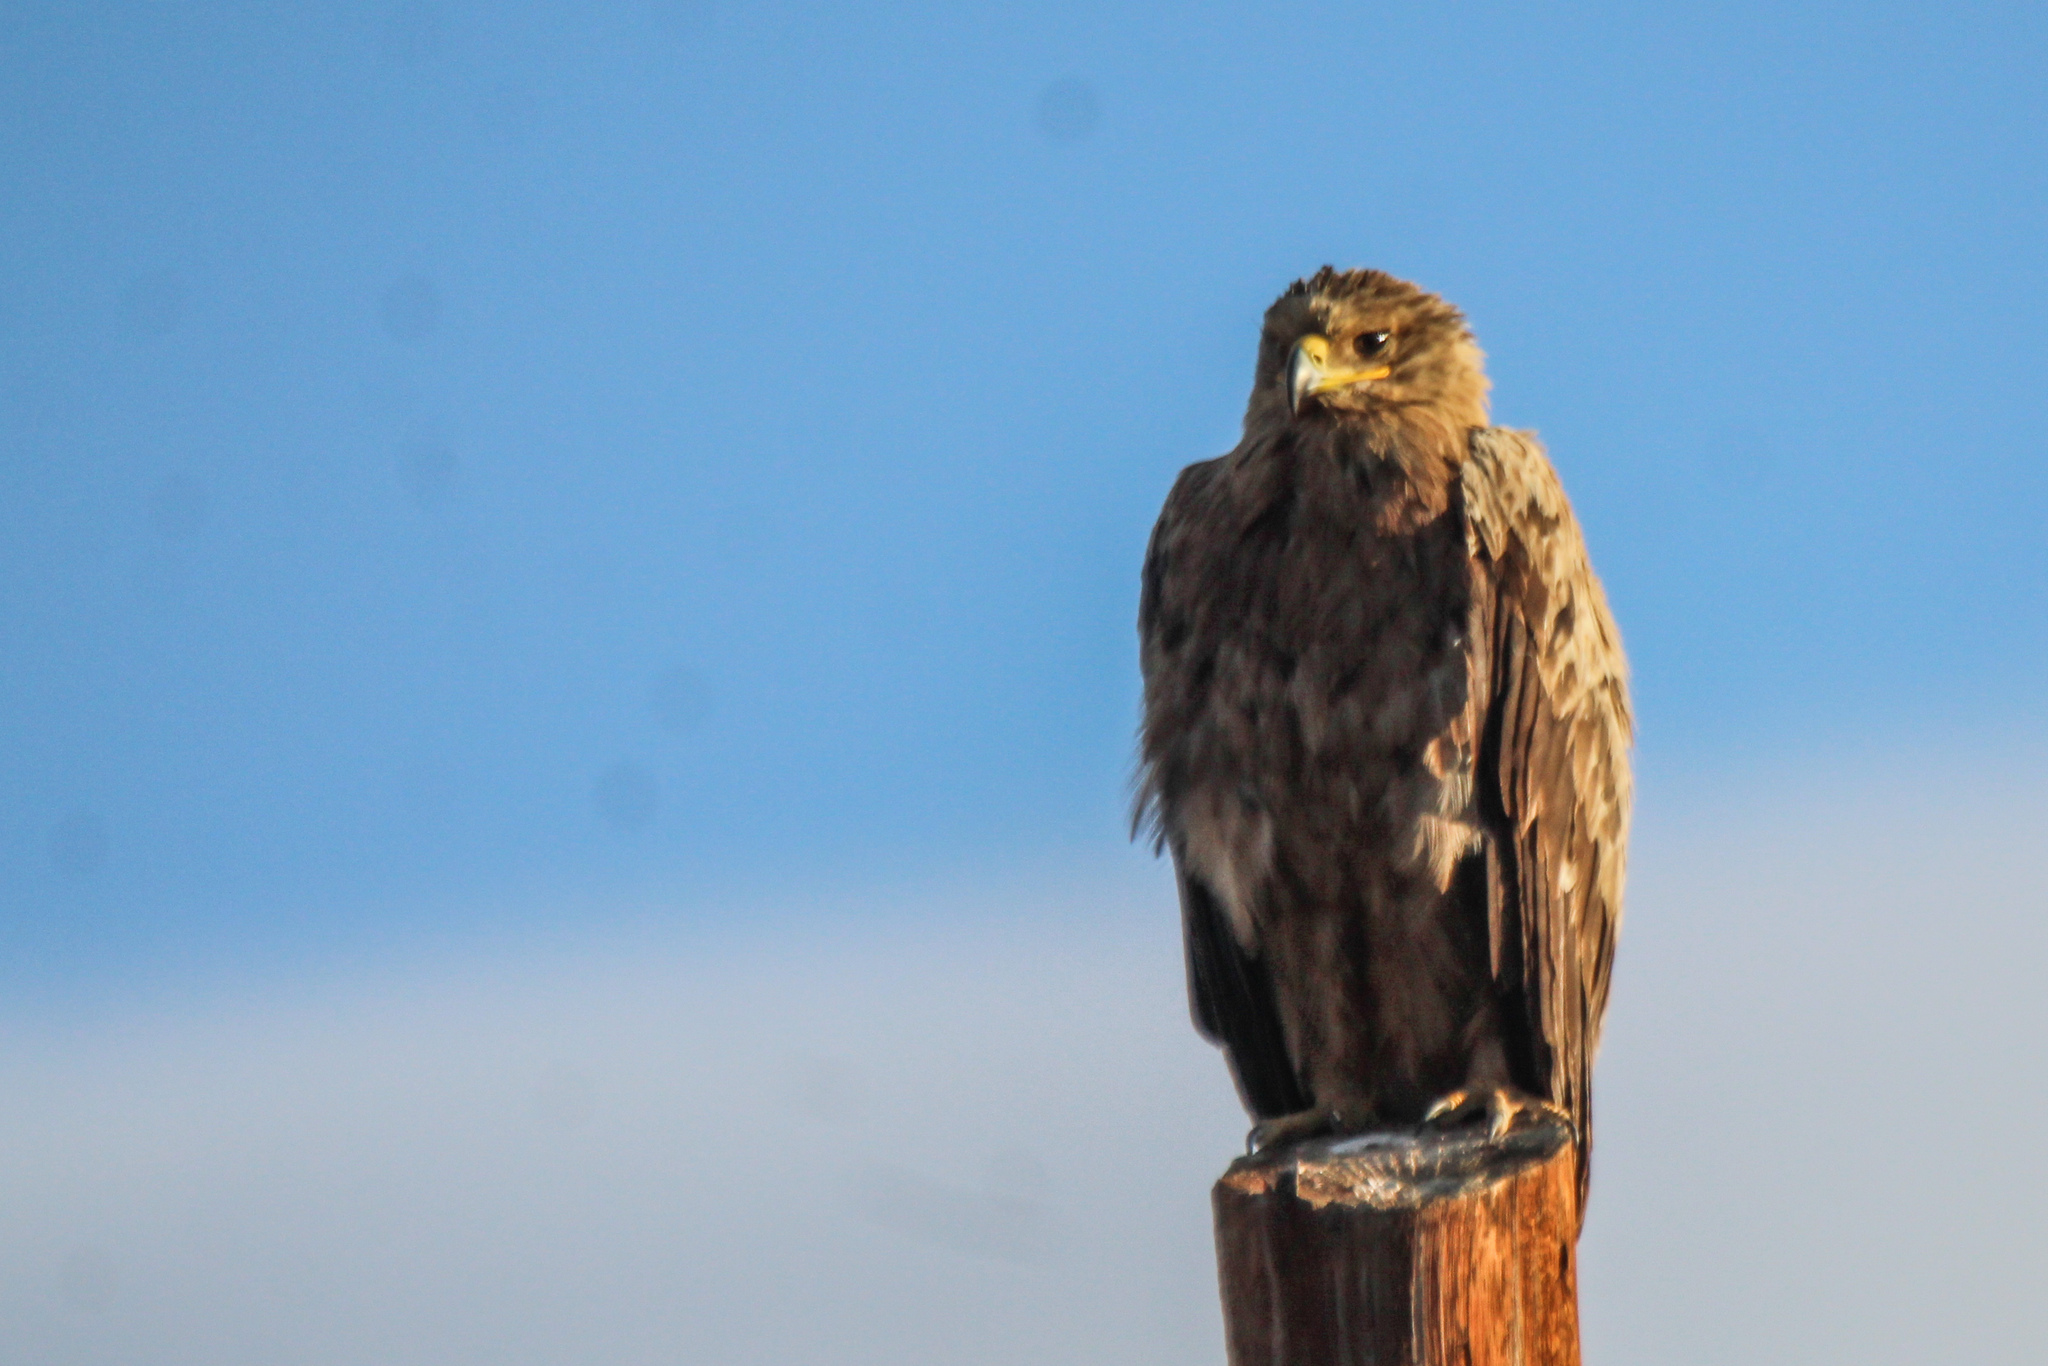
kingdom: Animalia
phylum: Chordata
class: Aves
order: Accipitriformes
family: Accipitridae
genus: Aquila
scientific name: Aquila nipalensis
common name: Steppe eagle
